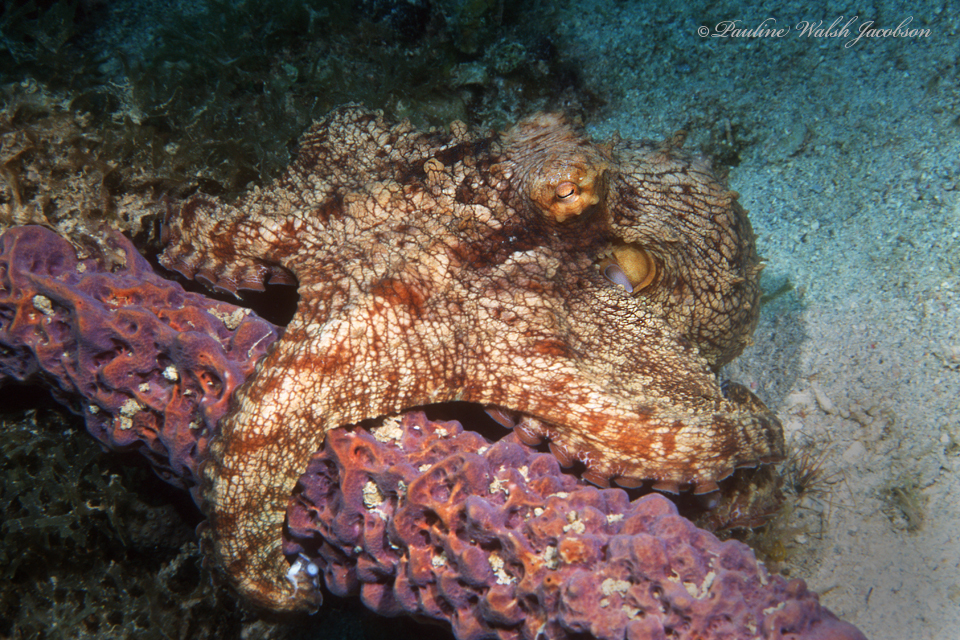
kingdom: Animalia
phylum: Mollusca
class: Cephalopoda
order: Octopoda
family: Octopodidae
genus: Octopus
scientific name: Octopus insularis
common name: Brazil reef octopus
